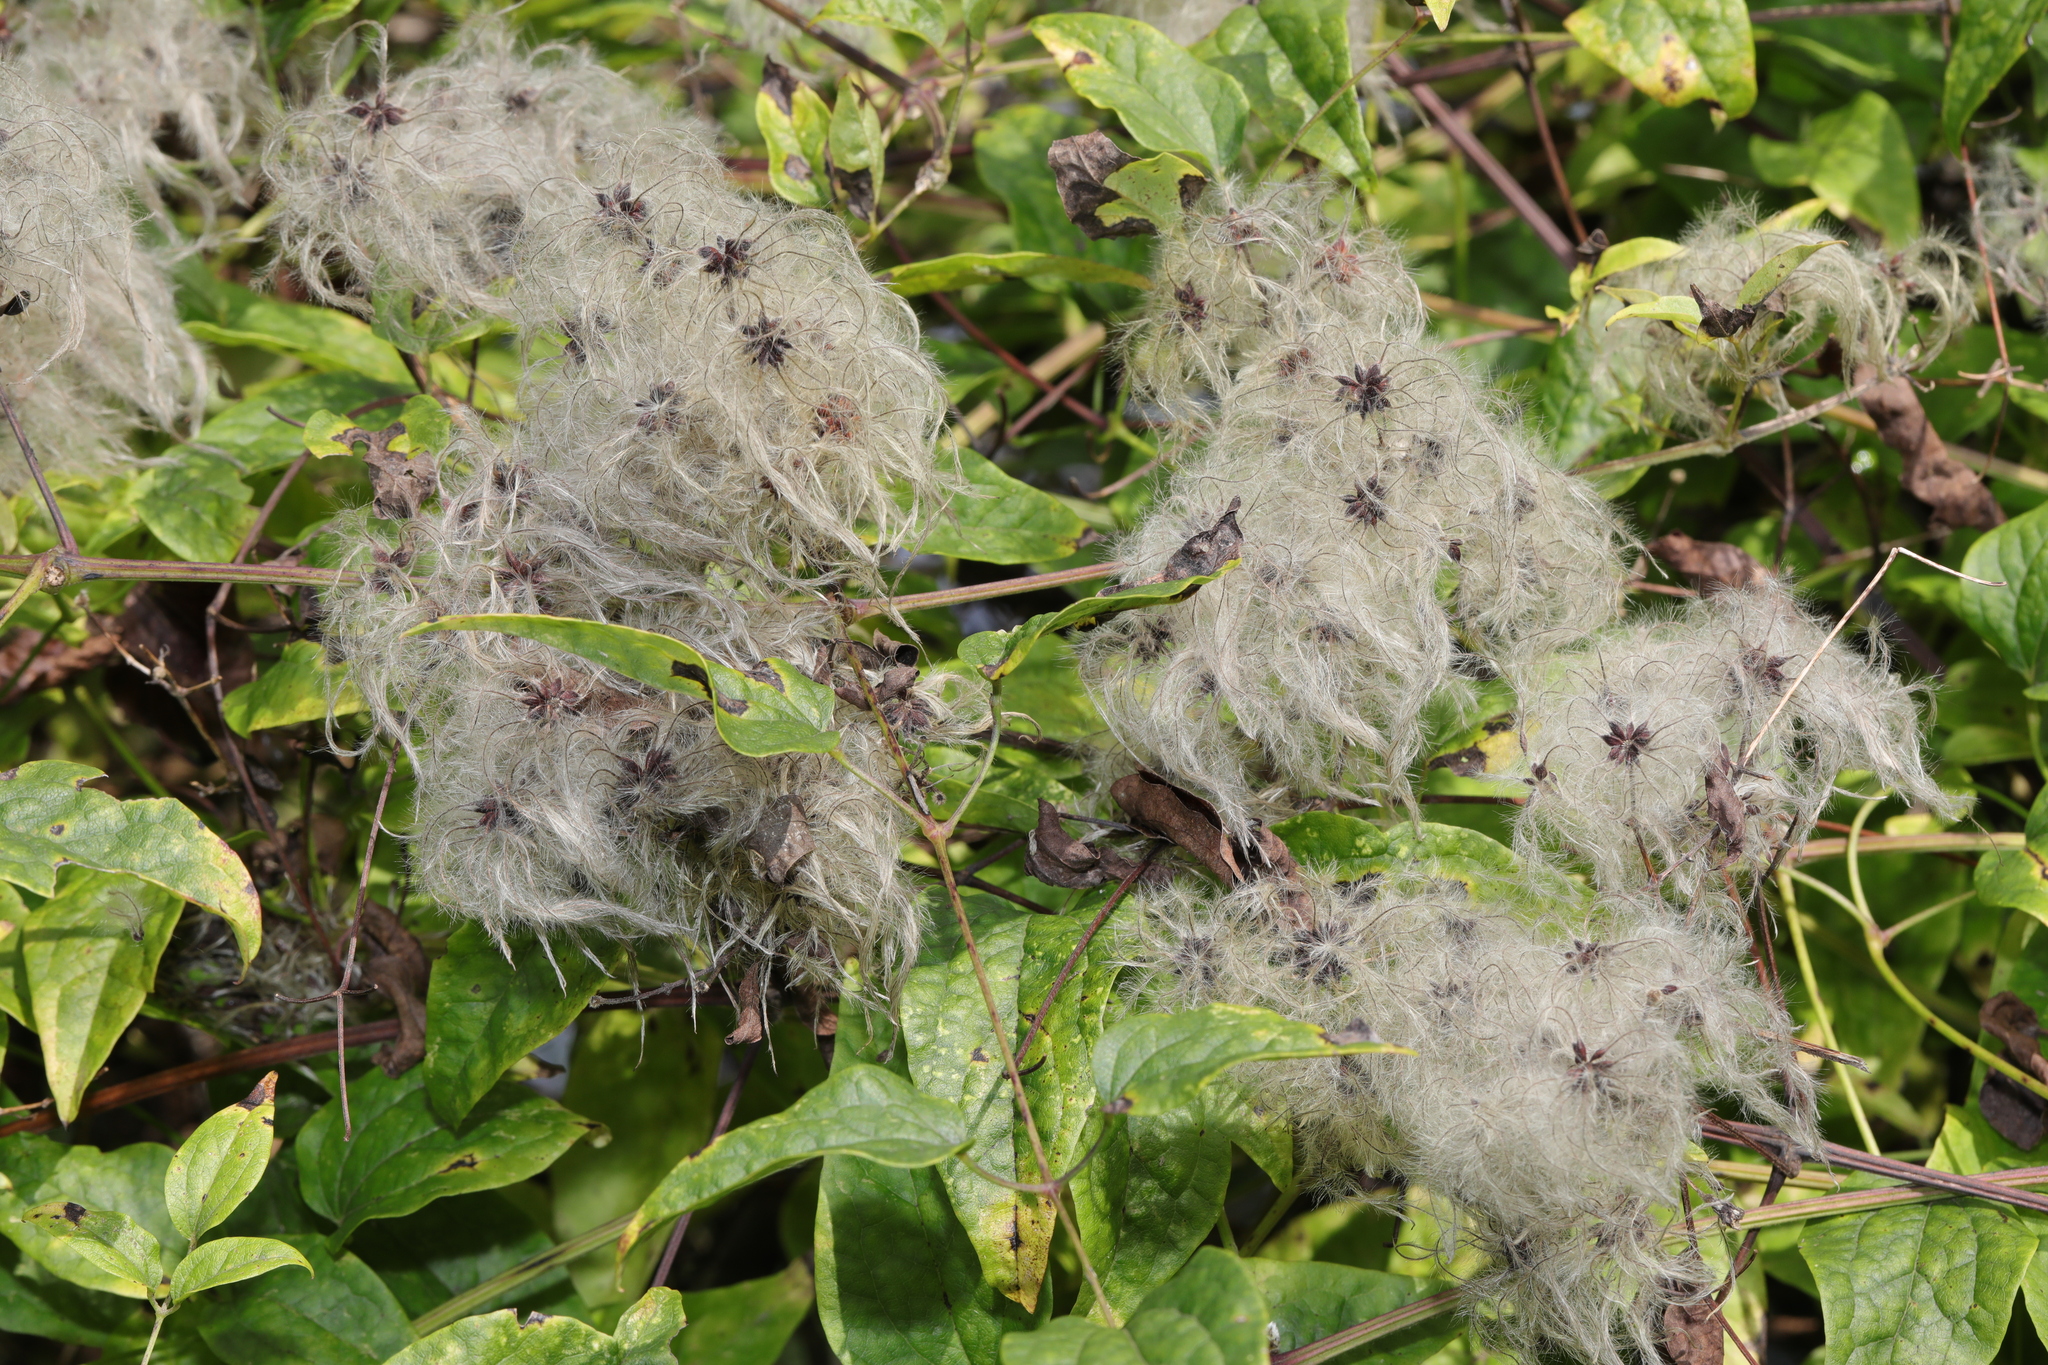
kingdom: Plantae
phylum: Tracheophyta
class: Magnoliopsida
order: Ranunculales
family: Ranunculaceae
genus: Clematis
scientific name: Clematis vitalba
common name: Evergreen clematis
